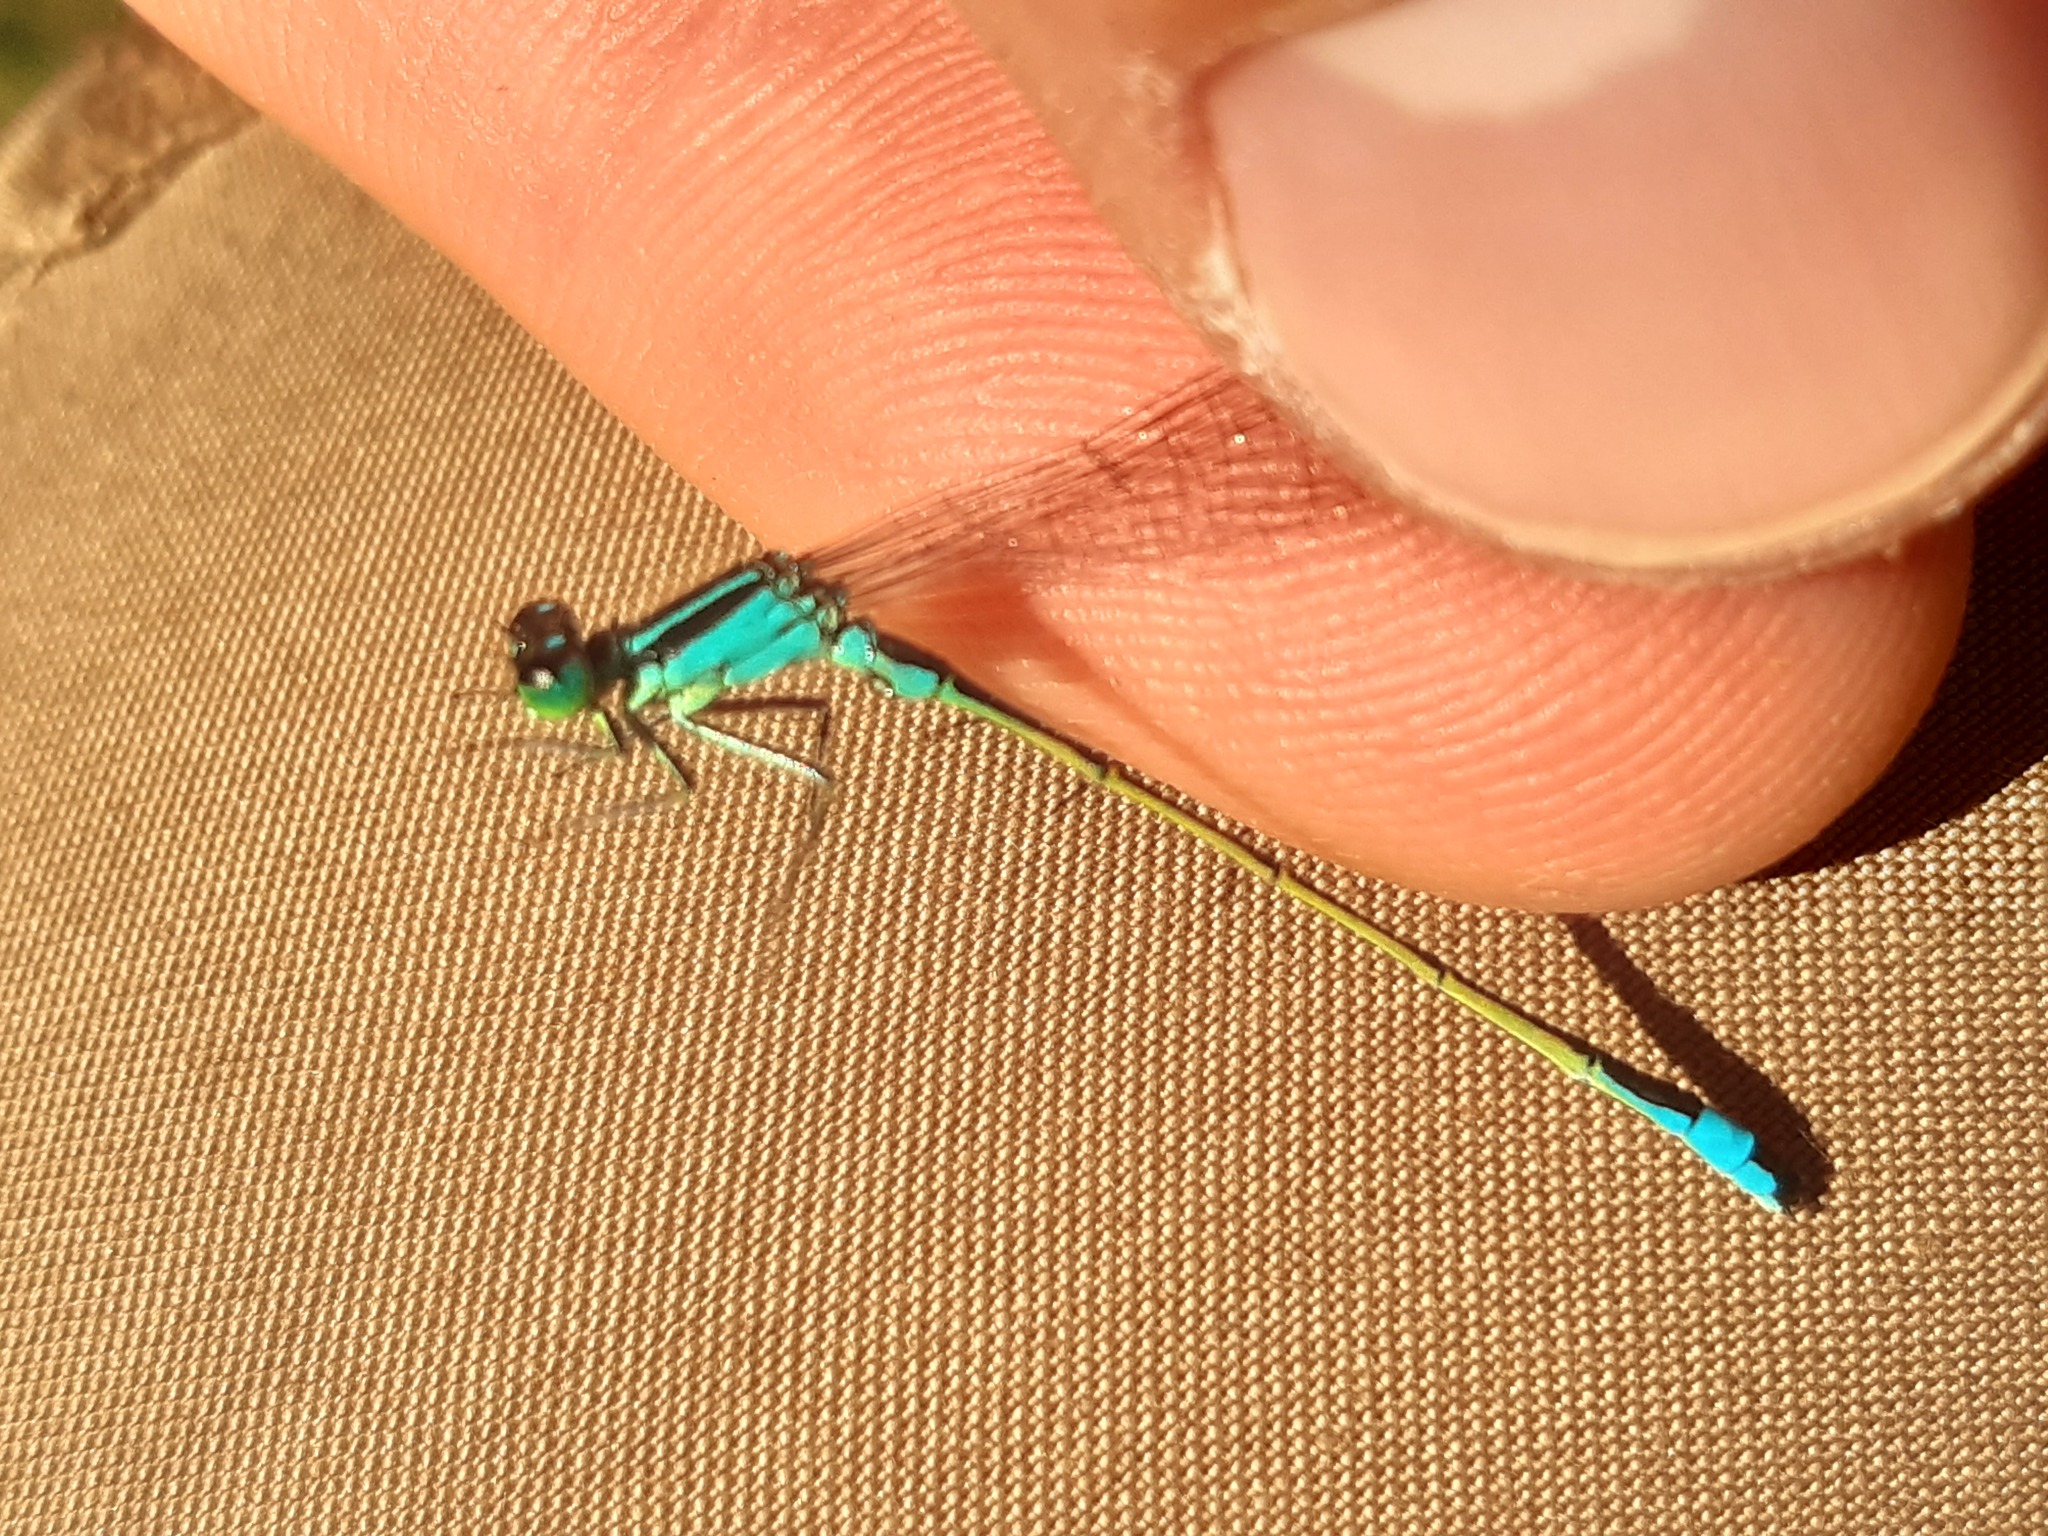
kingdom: Animalia
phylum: Arthropoda
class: Insecta
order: Odonata
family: Coenagrionidae
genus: Ischnura
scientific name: Ischnura elegans
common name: Blue-tailed damselfly
